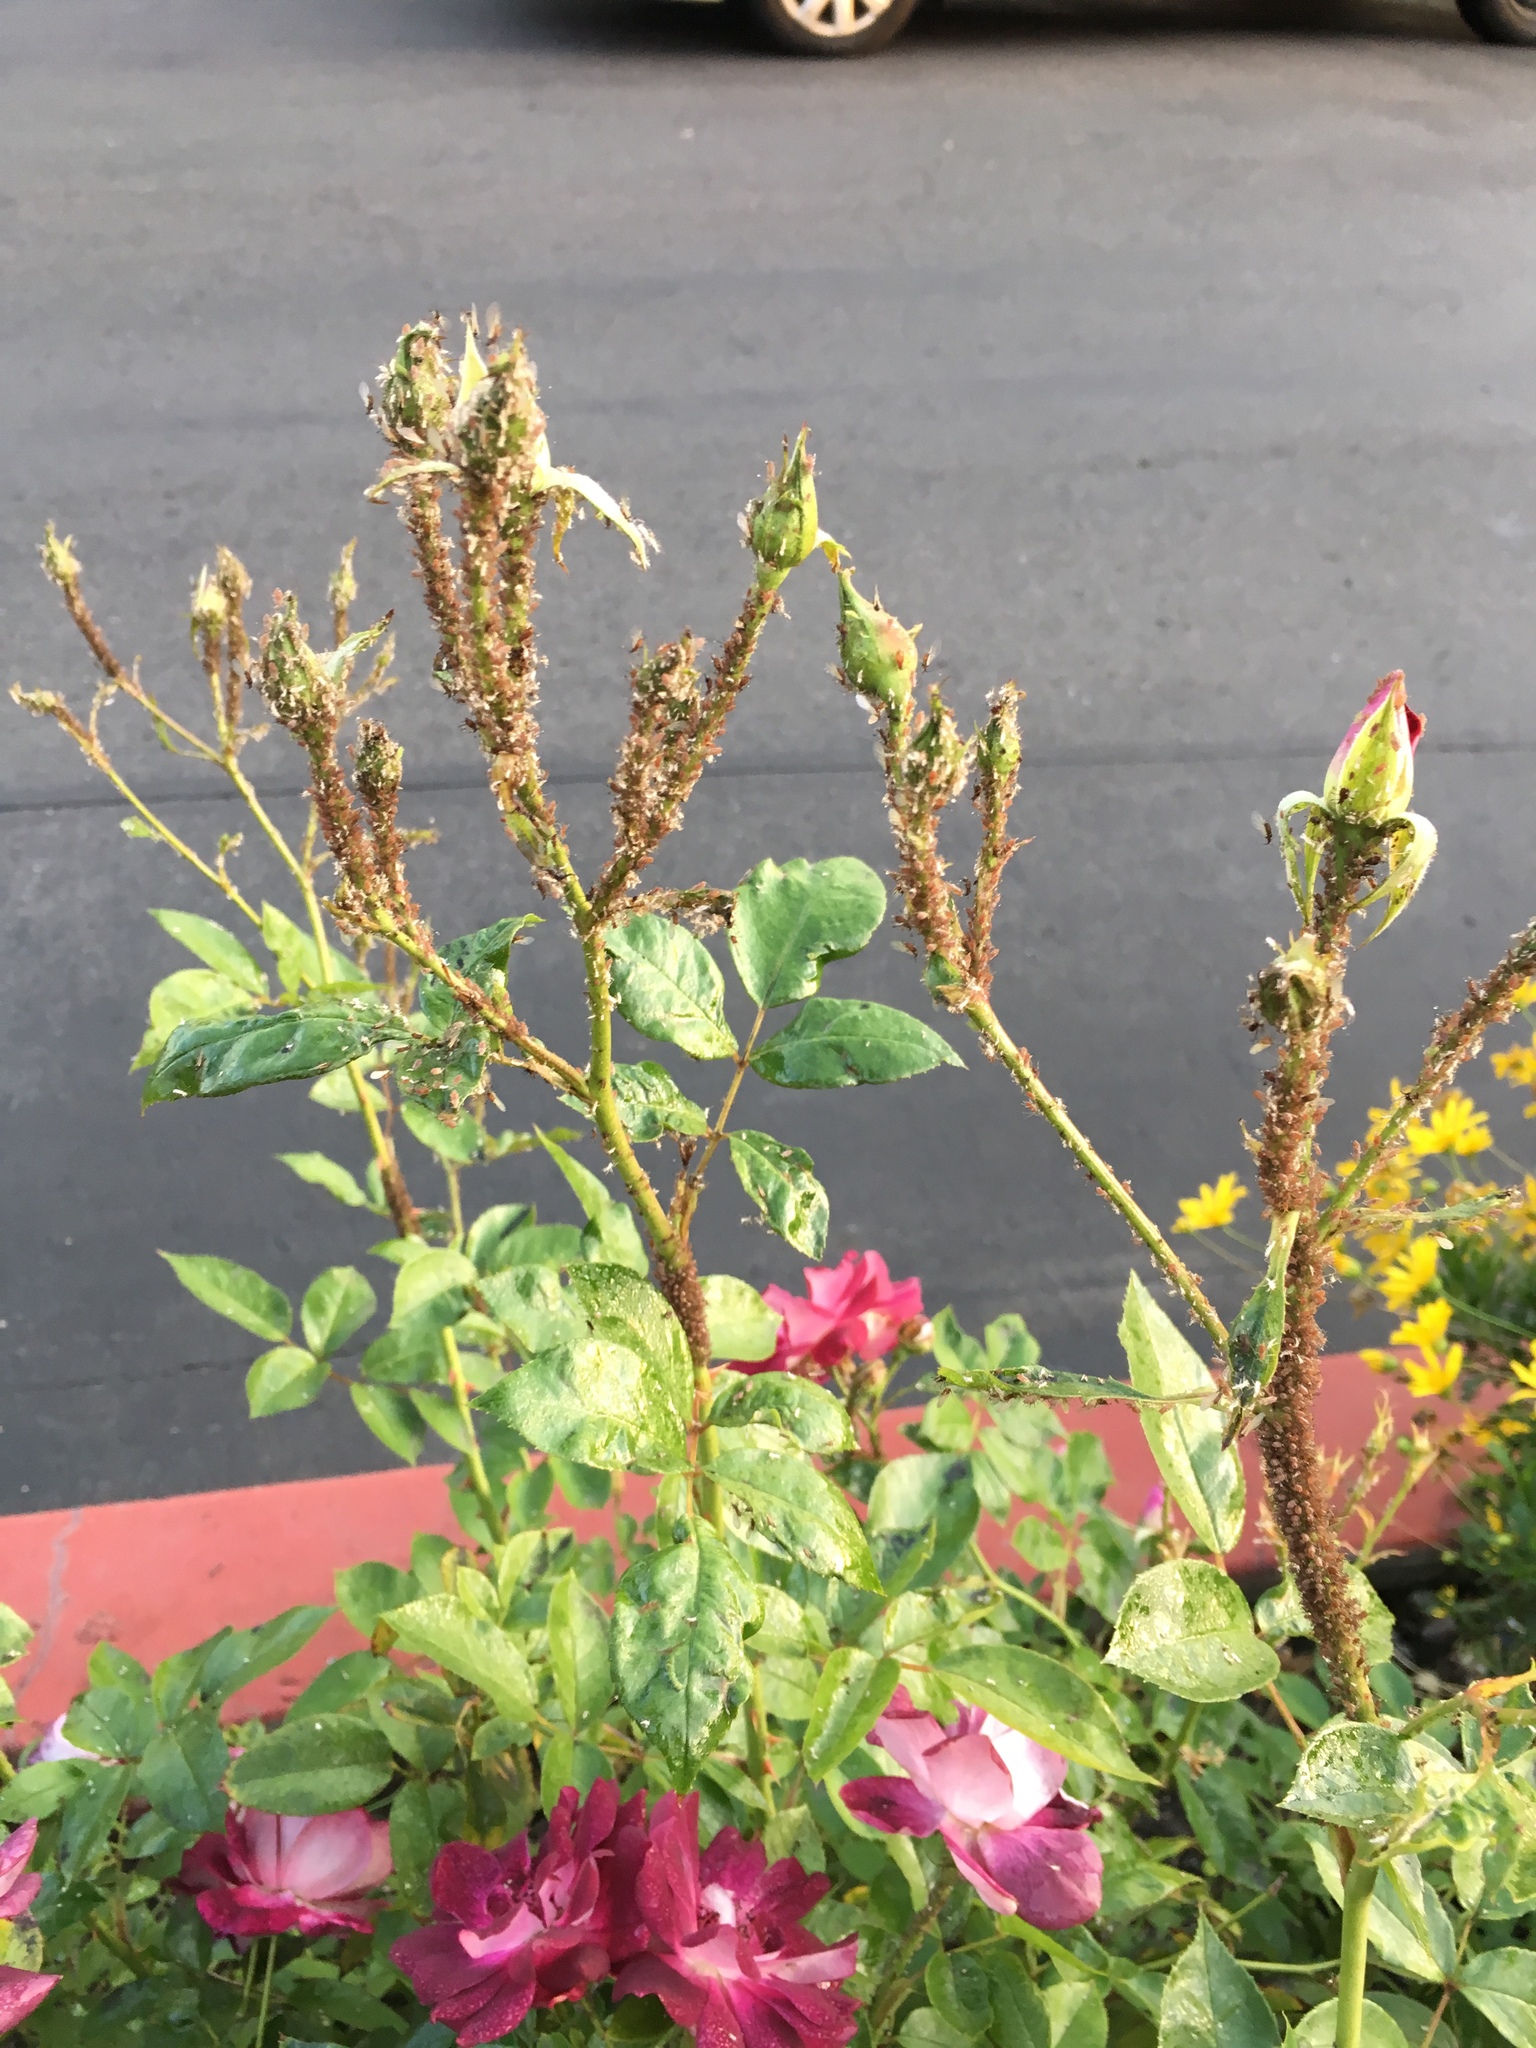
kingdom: Animalia
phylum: Arthropoda
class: Insecta
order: Hemiptera
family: Aphididae
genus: Macrosiphum
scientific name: Macrosiphum rosae
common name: Rose aphid
